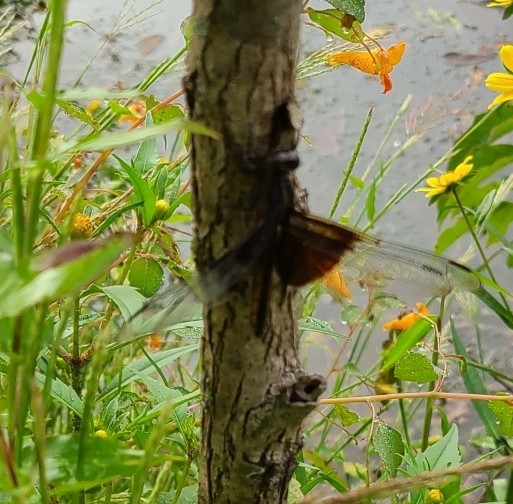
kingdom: Animalia
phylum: Arthropoda
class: Insecta
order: Odonata
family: Libellulidae
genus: Libellula
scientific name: Libellula luctuosa
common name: Widow skimmer
